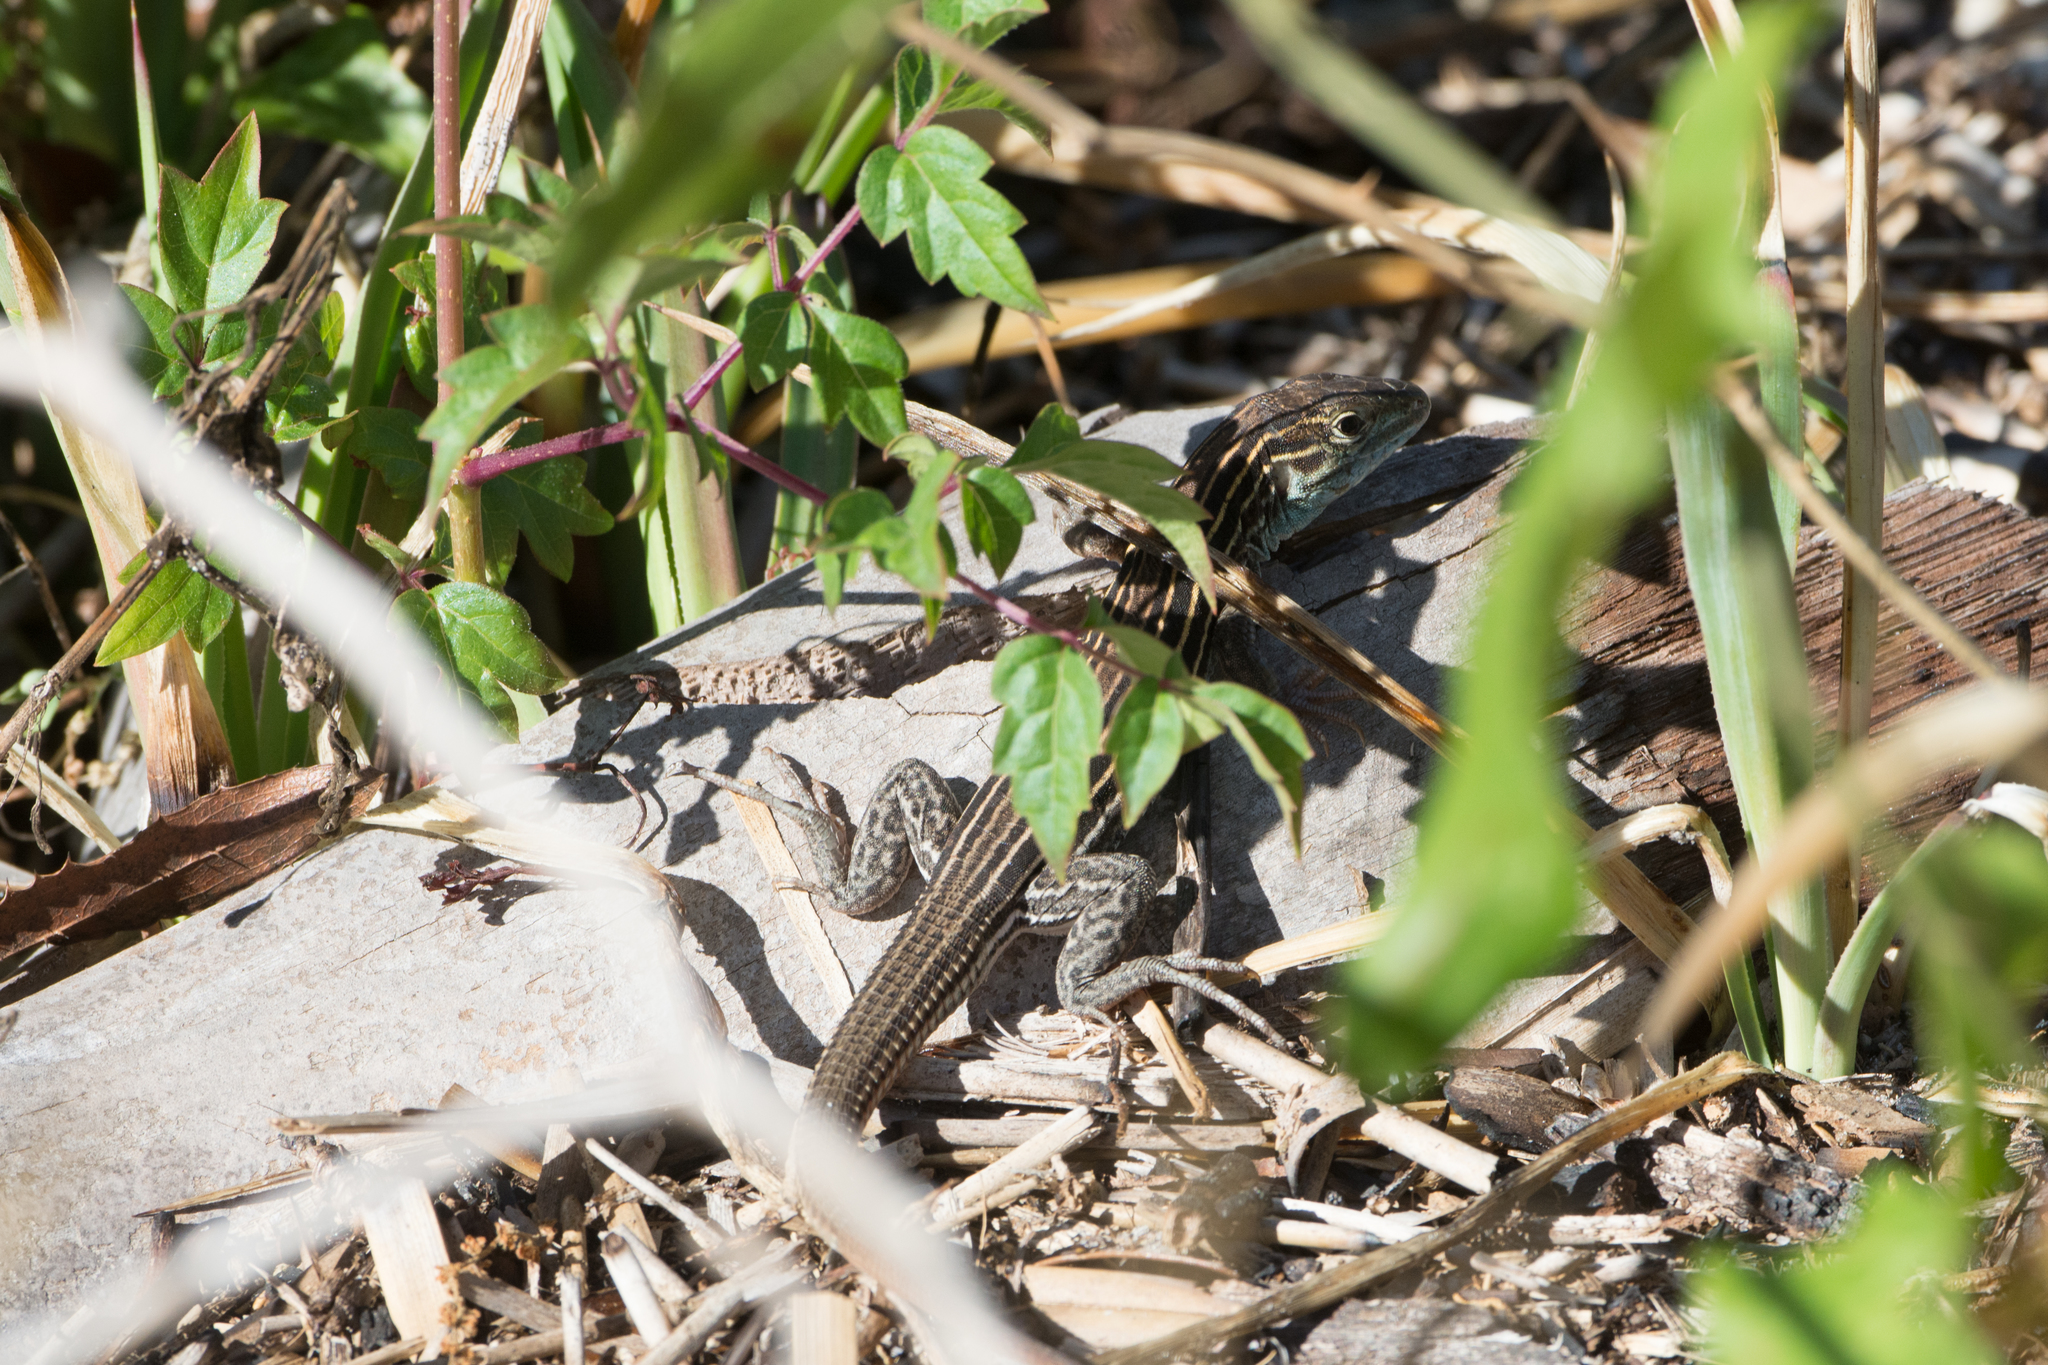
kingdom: Animalia
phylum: Chordata
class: Squamata
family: Teiidae
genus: Aspidoscelis
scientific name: Aspidoscelis sexlineatus
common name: Six-lined racerunner
